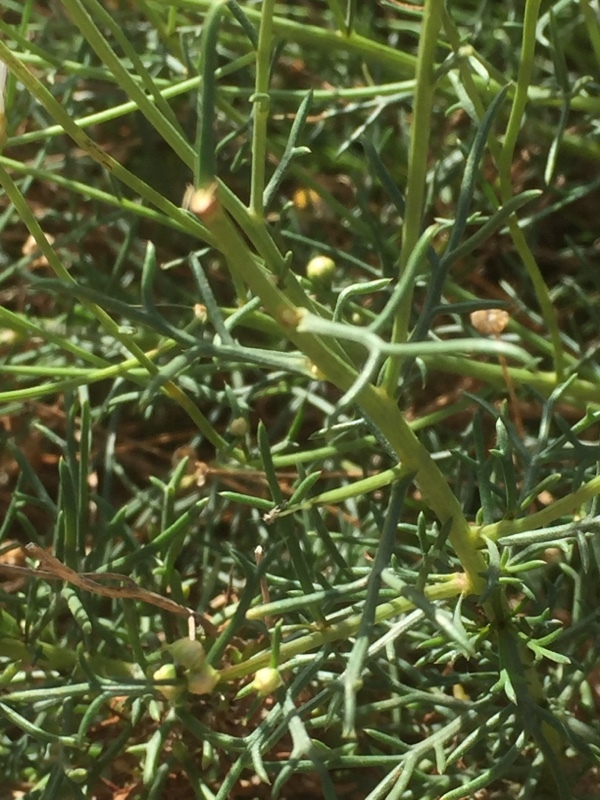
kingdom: Plantae
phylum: Tracheophyta
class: Magnoliopsida
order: Asterales
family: Asteraceae
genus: Argyranthemum
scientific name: Argyranthemum frutescens
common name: Paris daisy
